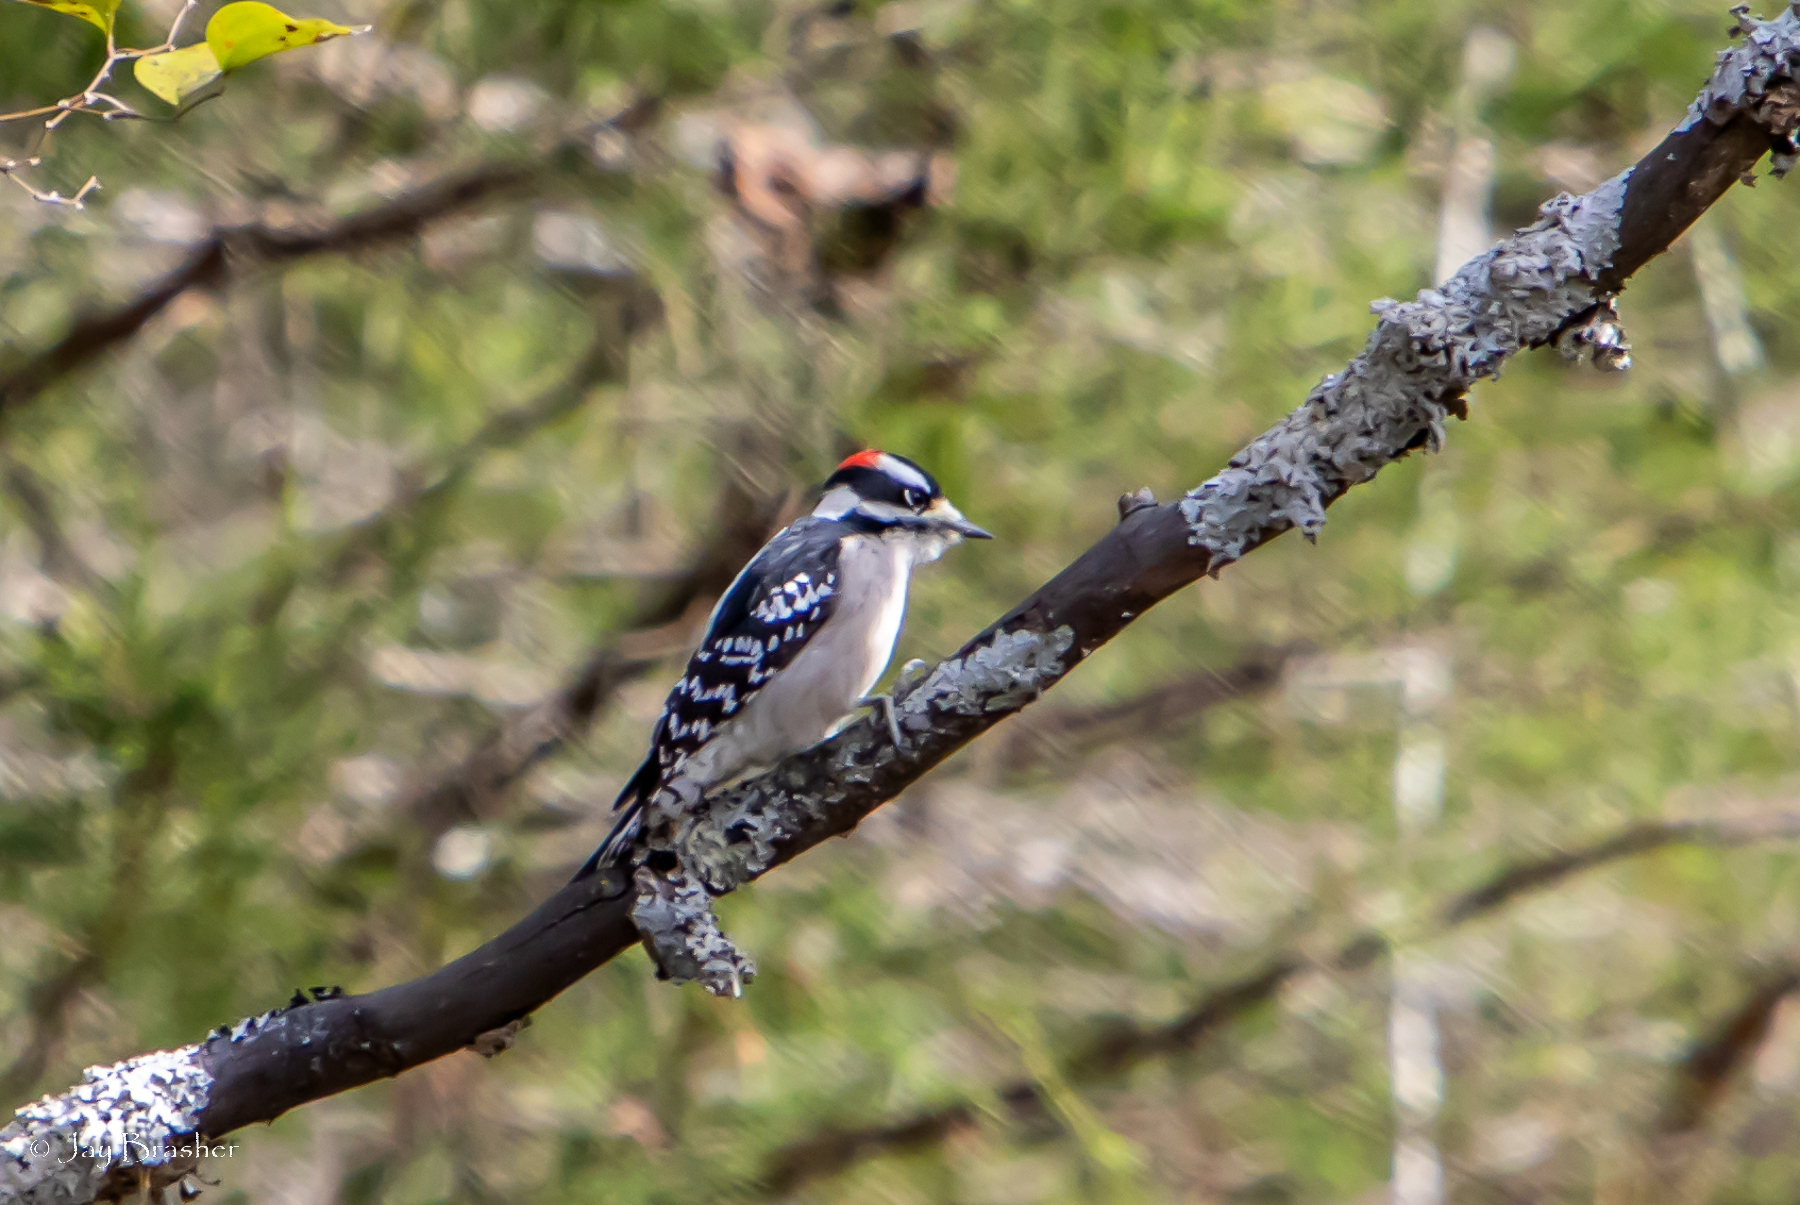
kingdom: Animalia
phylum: Chordata
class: Aves
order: Piciformes
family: Picidae
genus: Dryobates
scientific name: Dryobates pubescens
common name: Downy woodpecker
